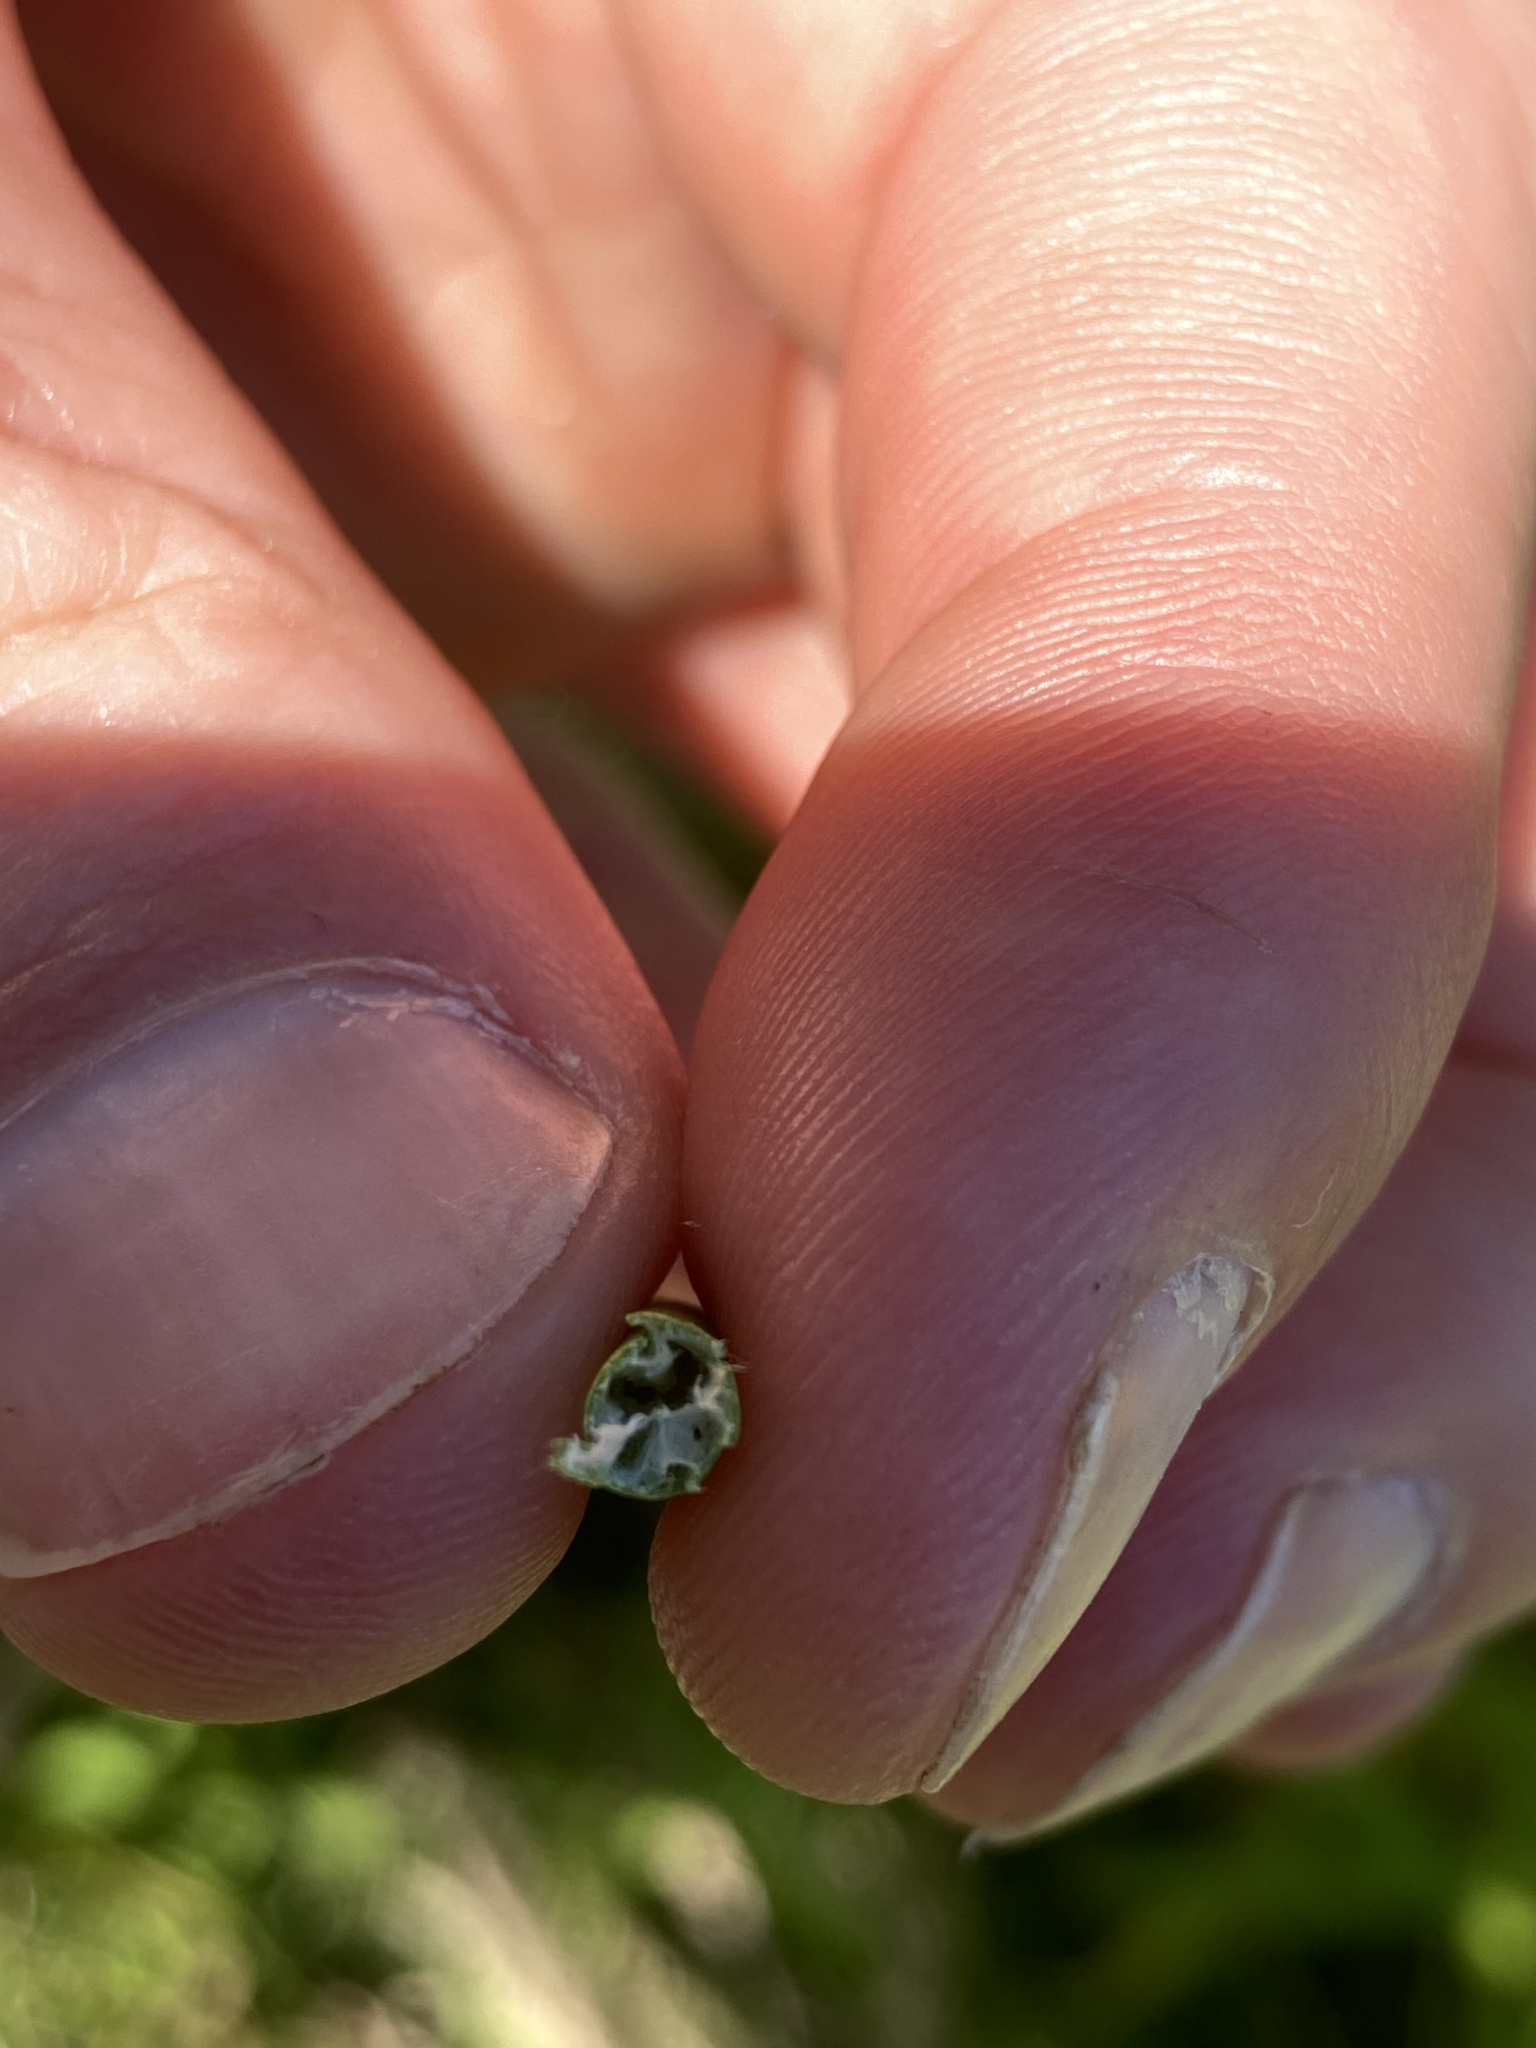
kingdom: Plantae
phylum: Tracheophyta
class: Liliopsida
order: Poales
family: Cyperaceae
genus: Schoenoplectus
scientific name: Schoenoplectus tabernaemontani
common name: Grey club-rush
